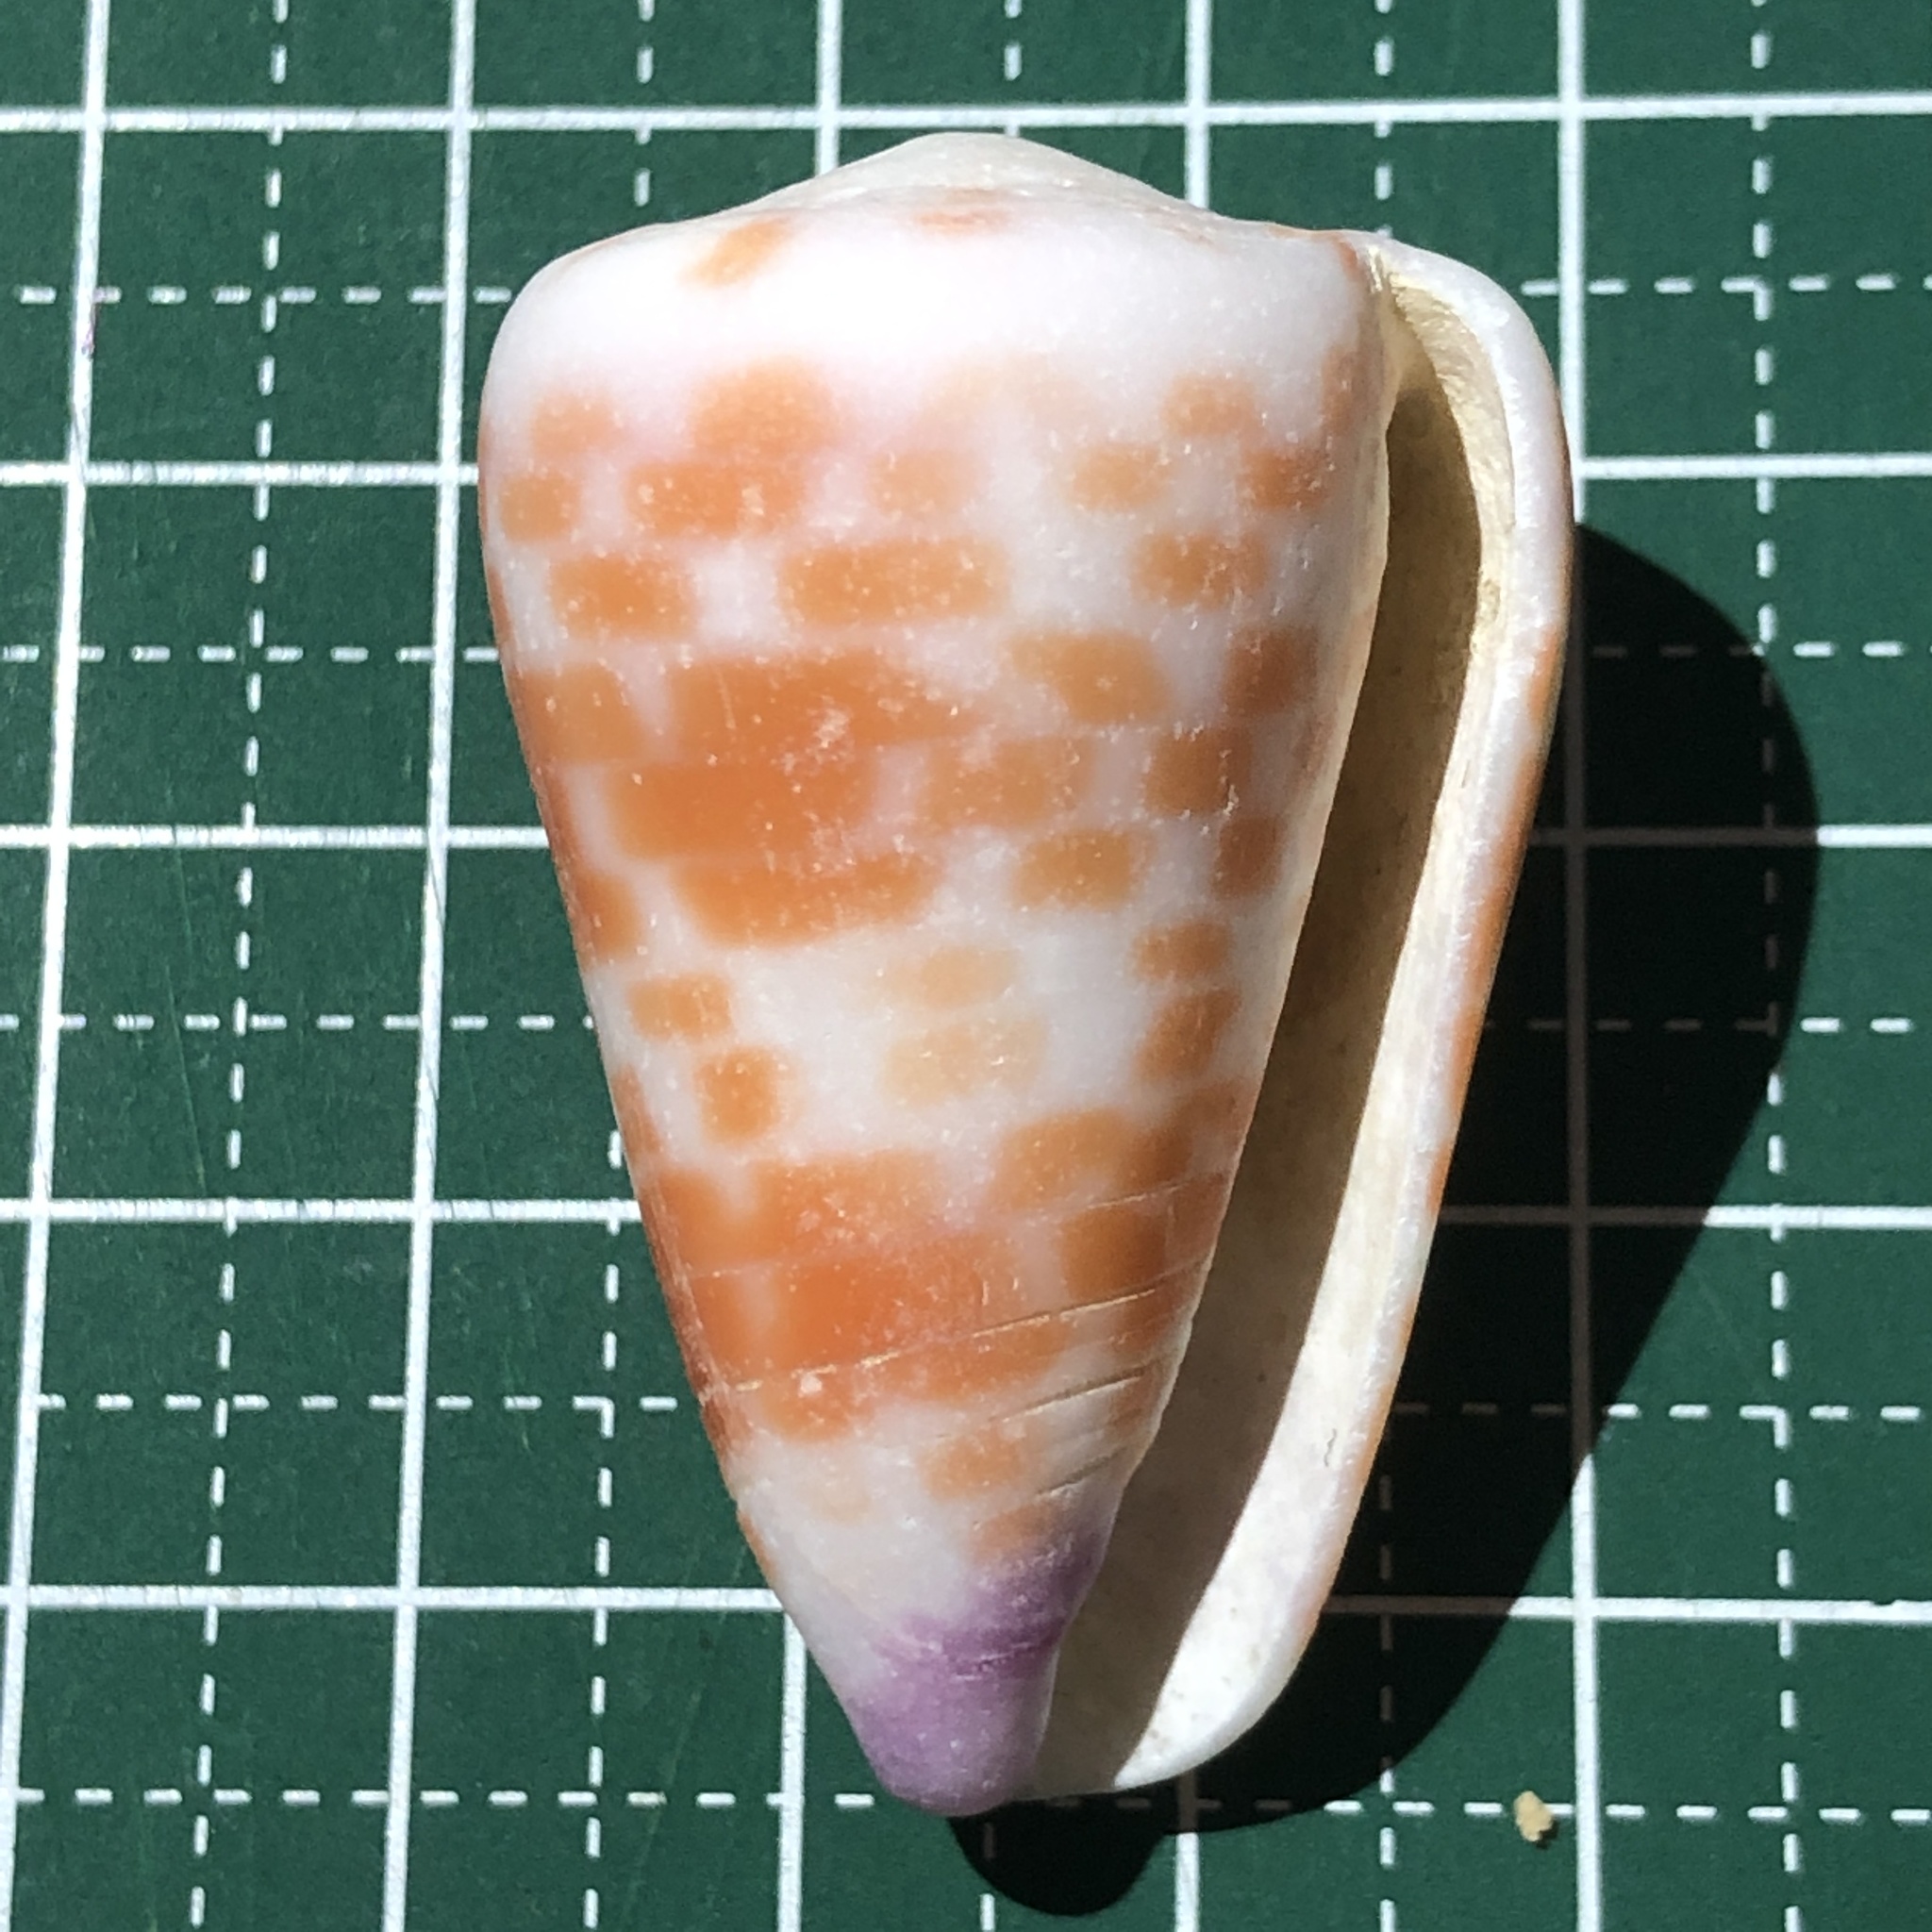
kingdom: Animalia
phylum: Mollusca
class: Gastropoda
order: Neogastropoda
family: Conidae
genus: Conus
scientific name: Conus tessulatus
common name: Tessellate cone
